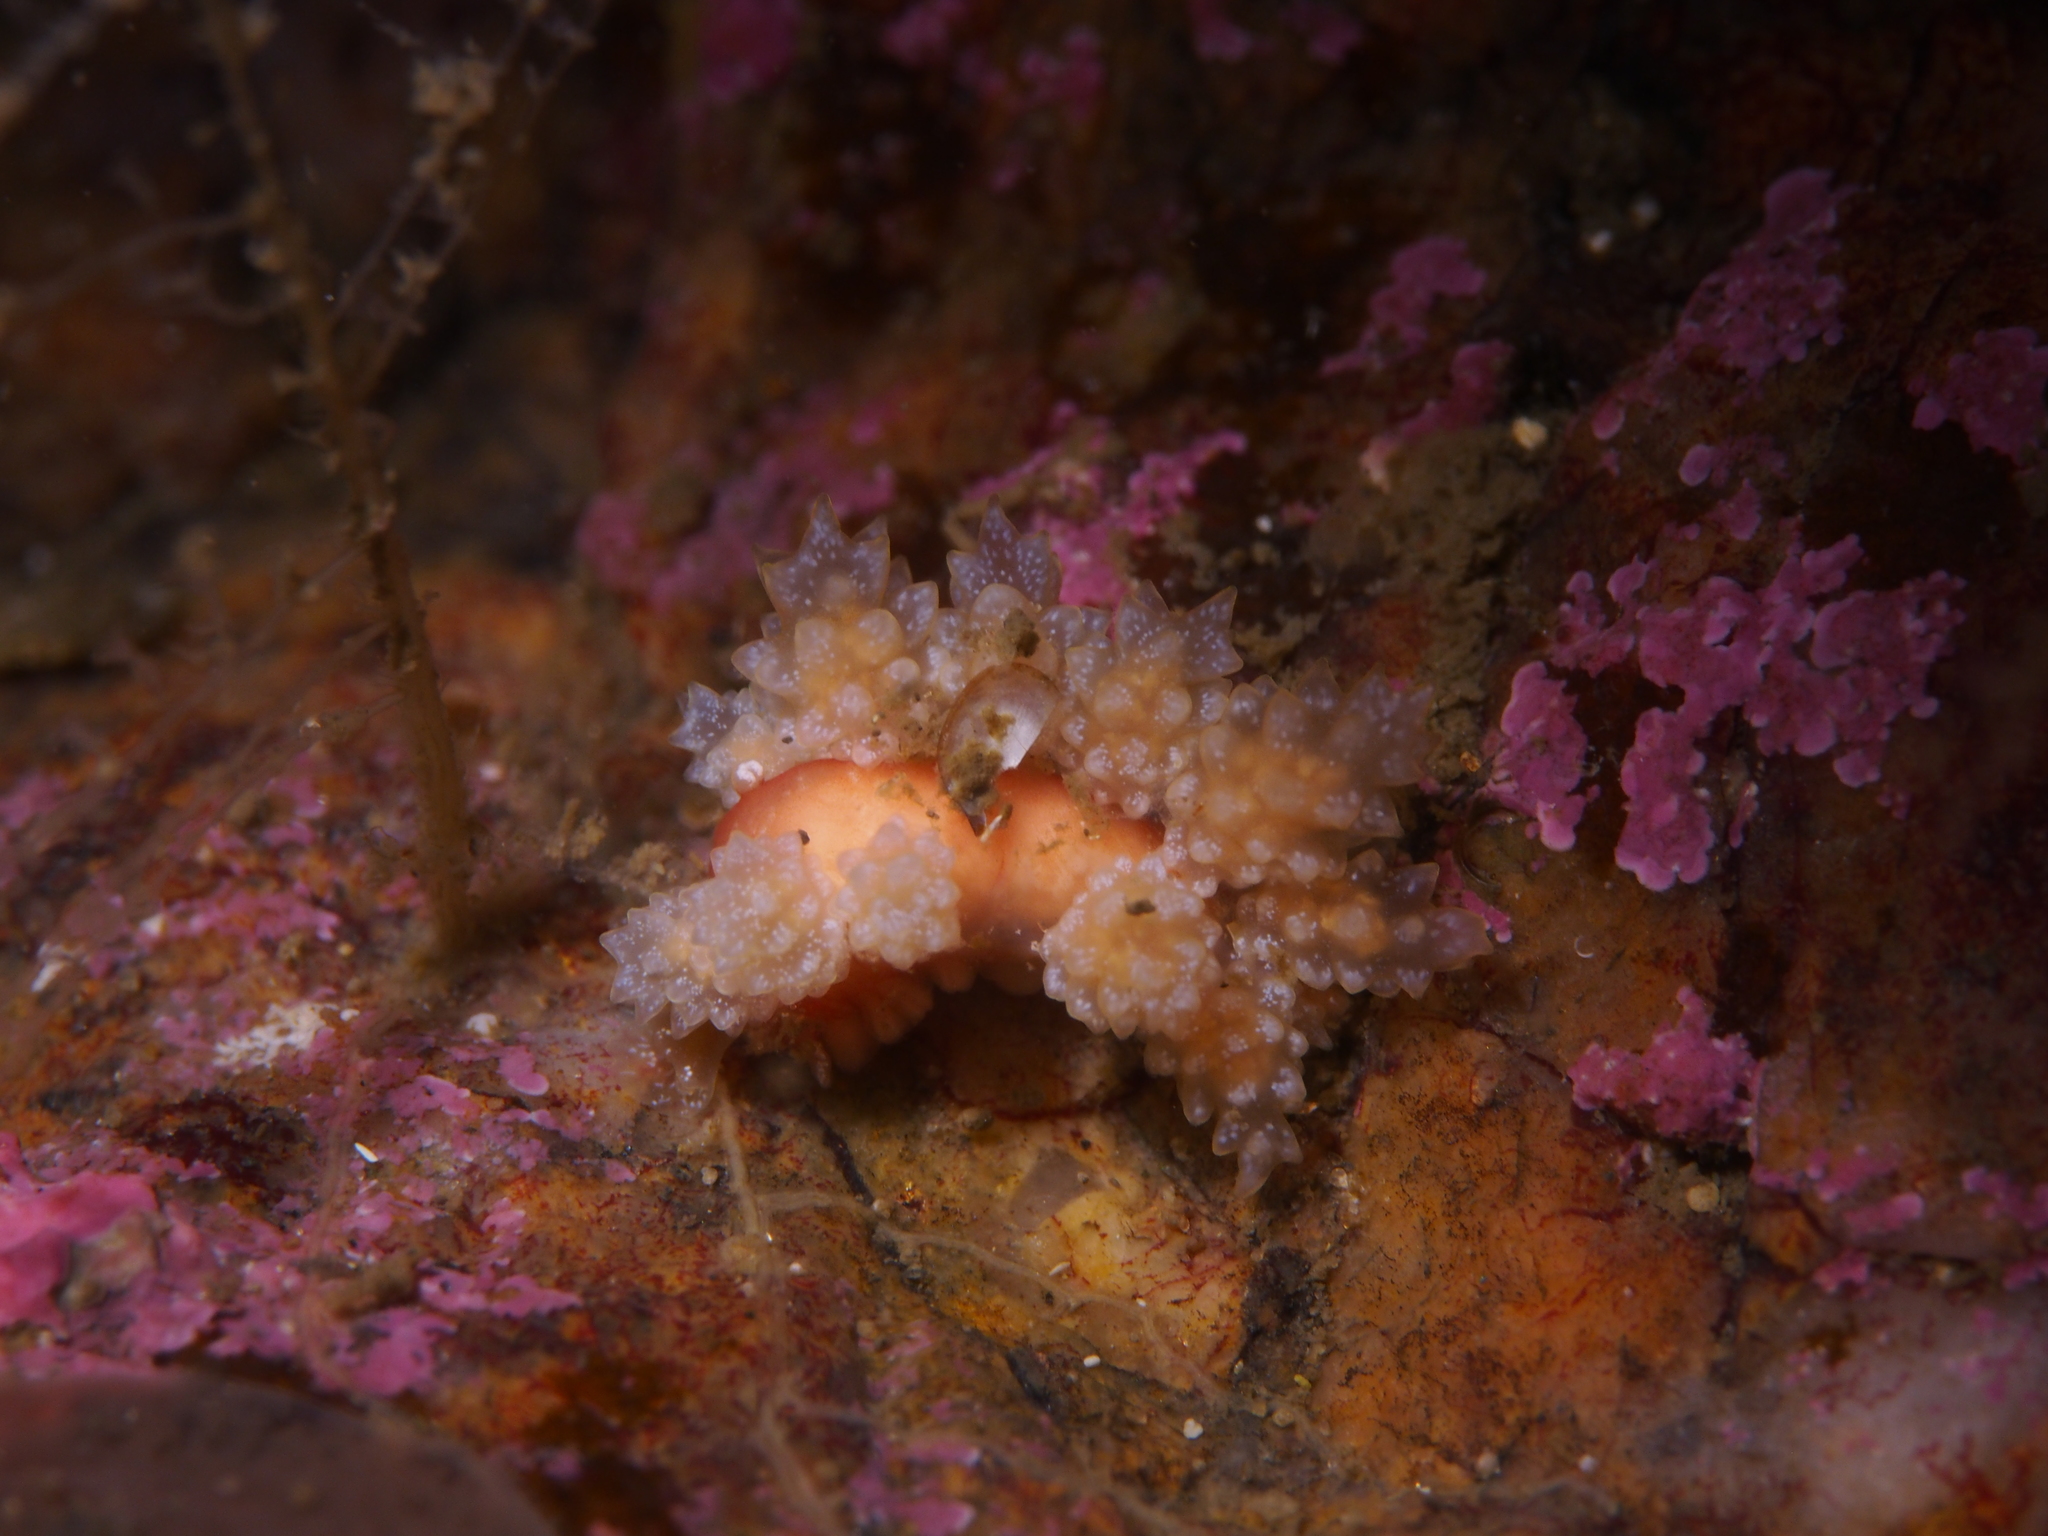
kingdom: Animalia
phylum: Mollusca
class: Gastropoda
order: Nudibranchia
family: Dotidae
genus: Doto
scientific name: Doto fragilis
